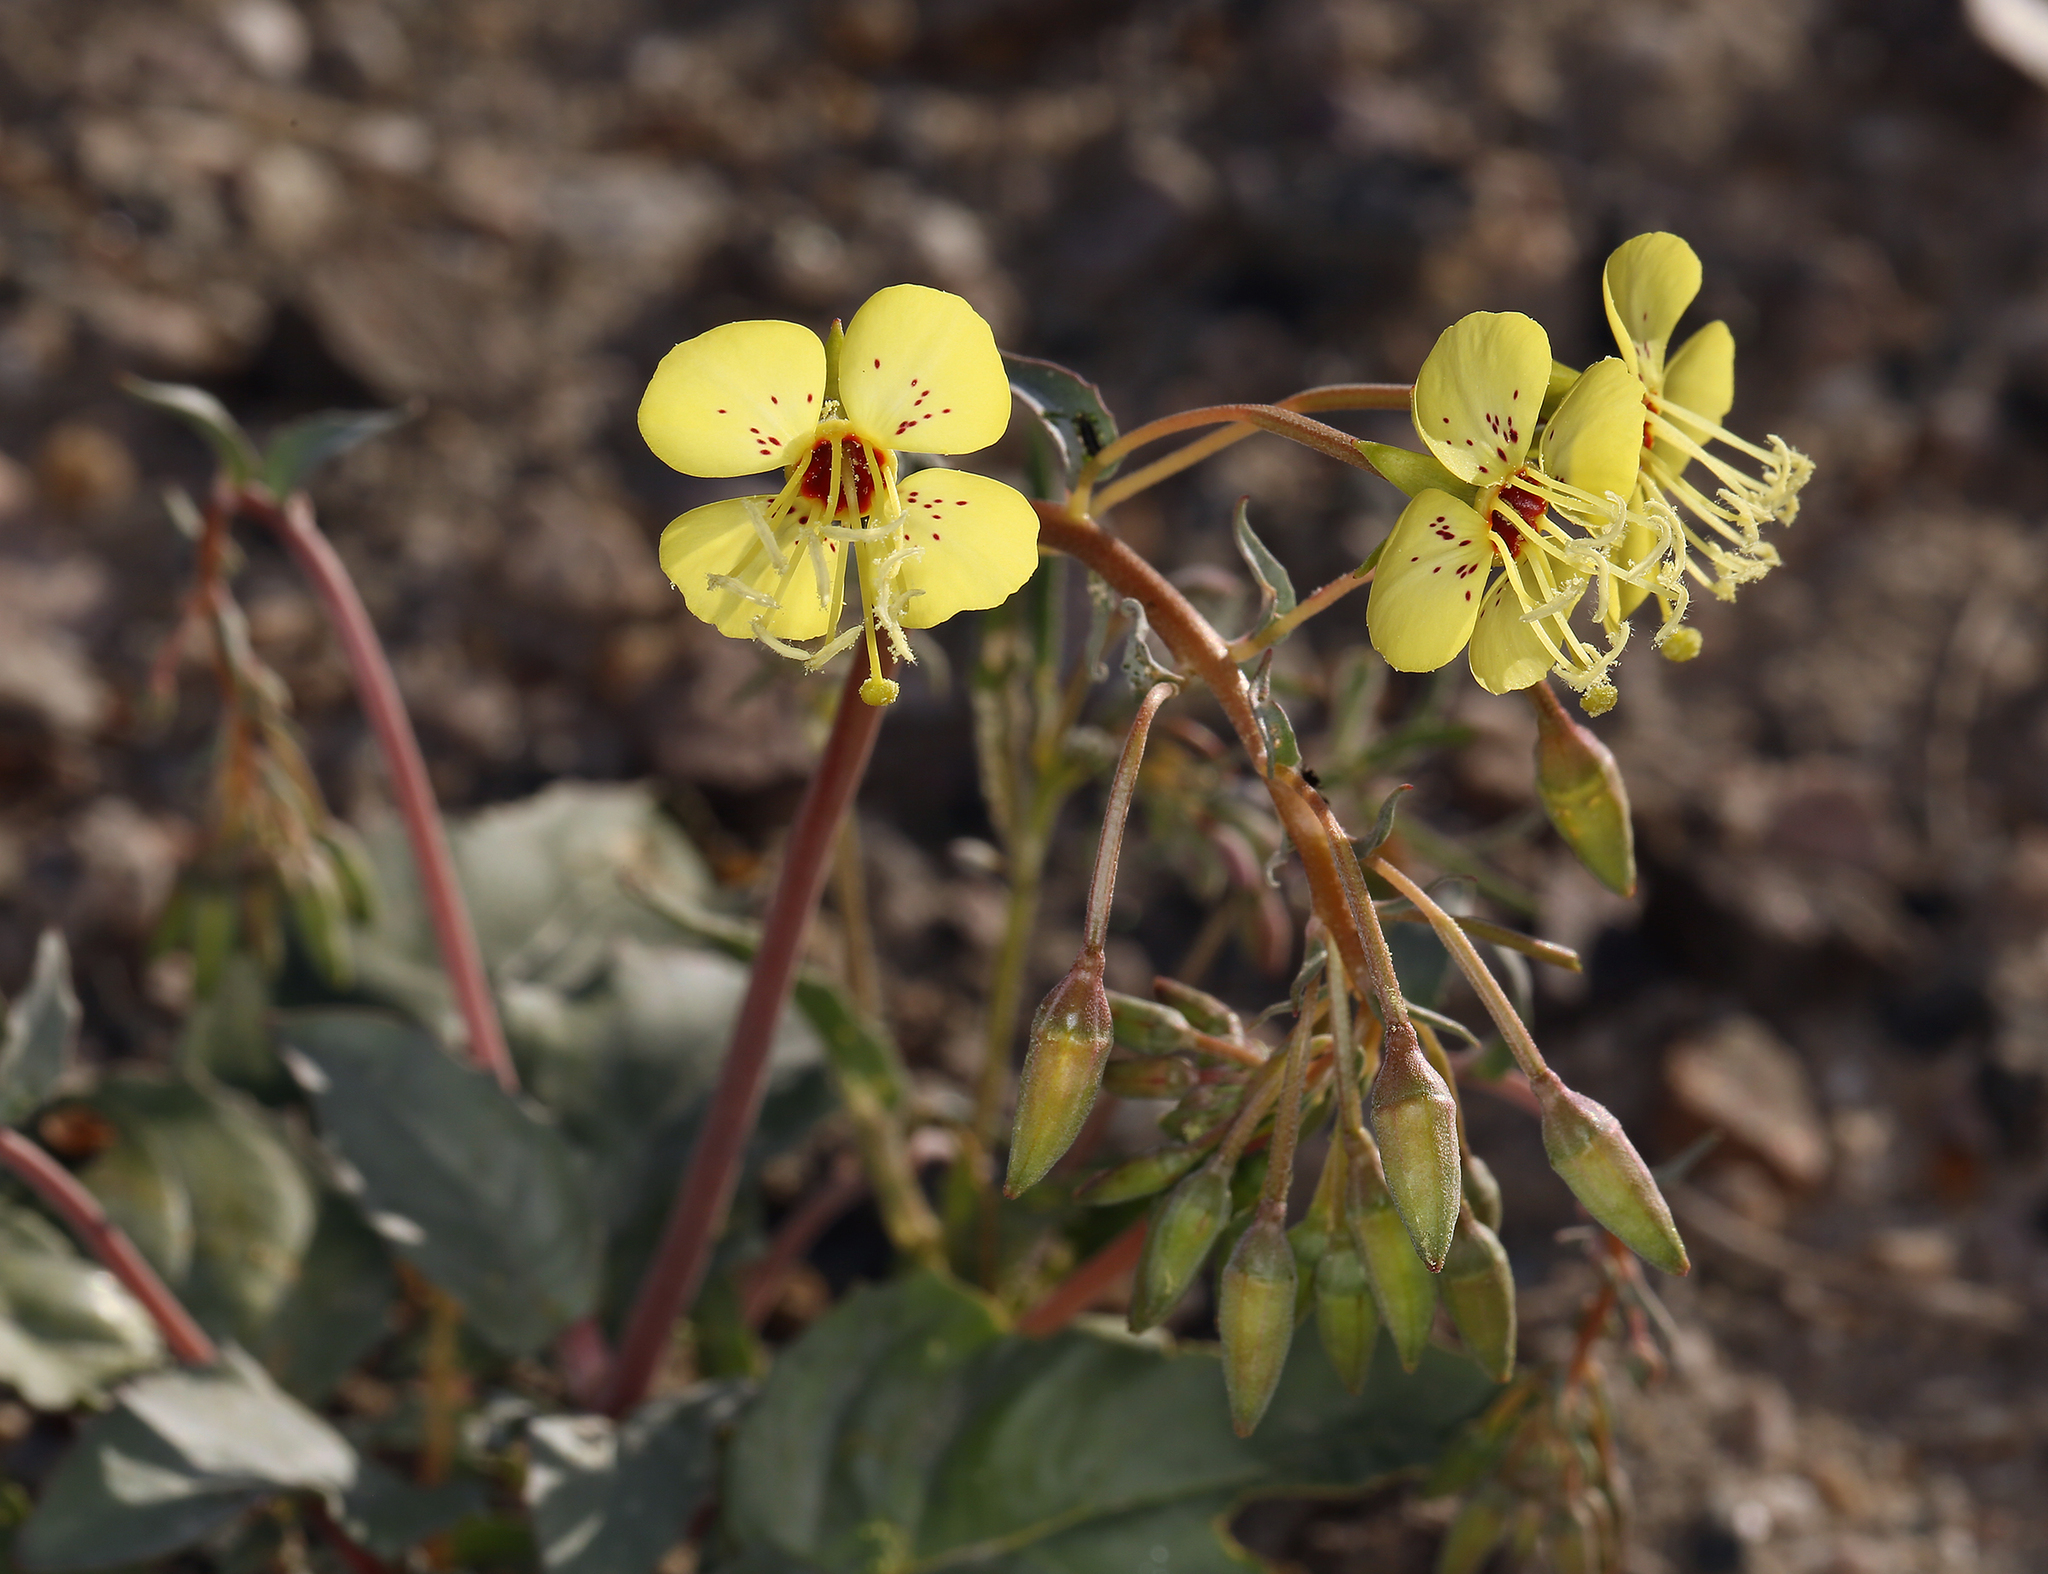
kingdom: Plantae
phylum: Tracheophyta
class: Magnoliopsida
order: Myrtales
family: Onagraceae
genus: Chylismia
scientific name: Chylismia claviformis
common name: Browneyes
